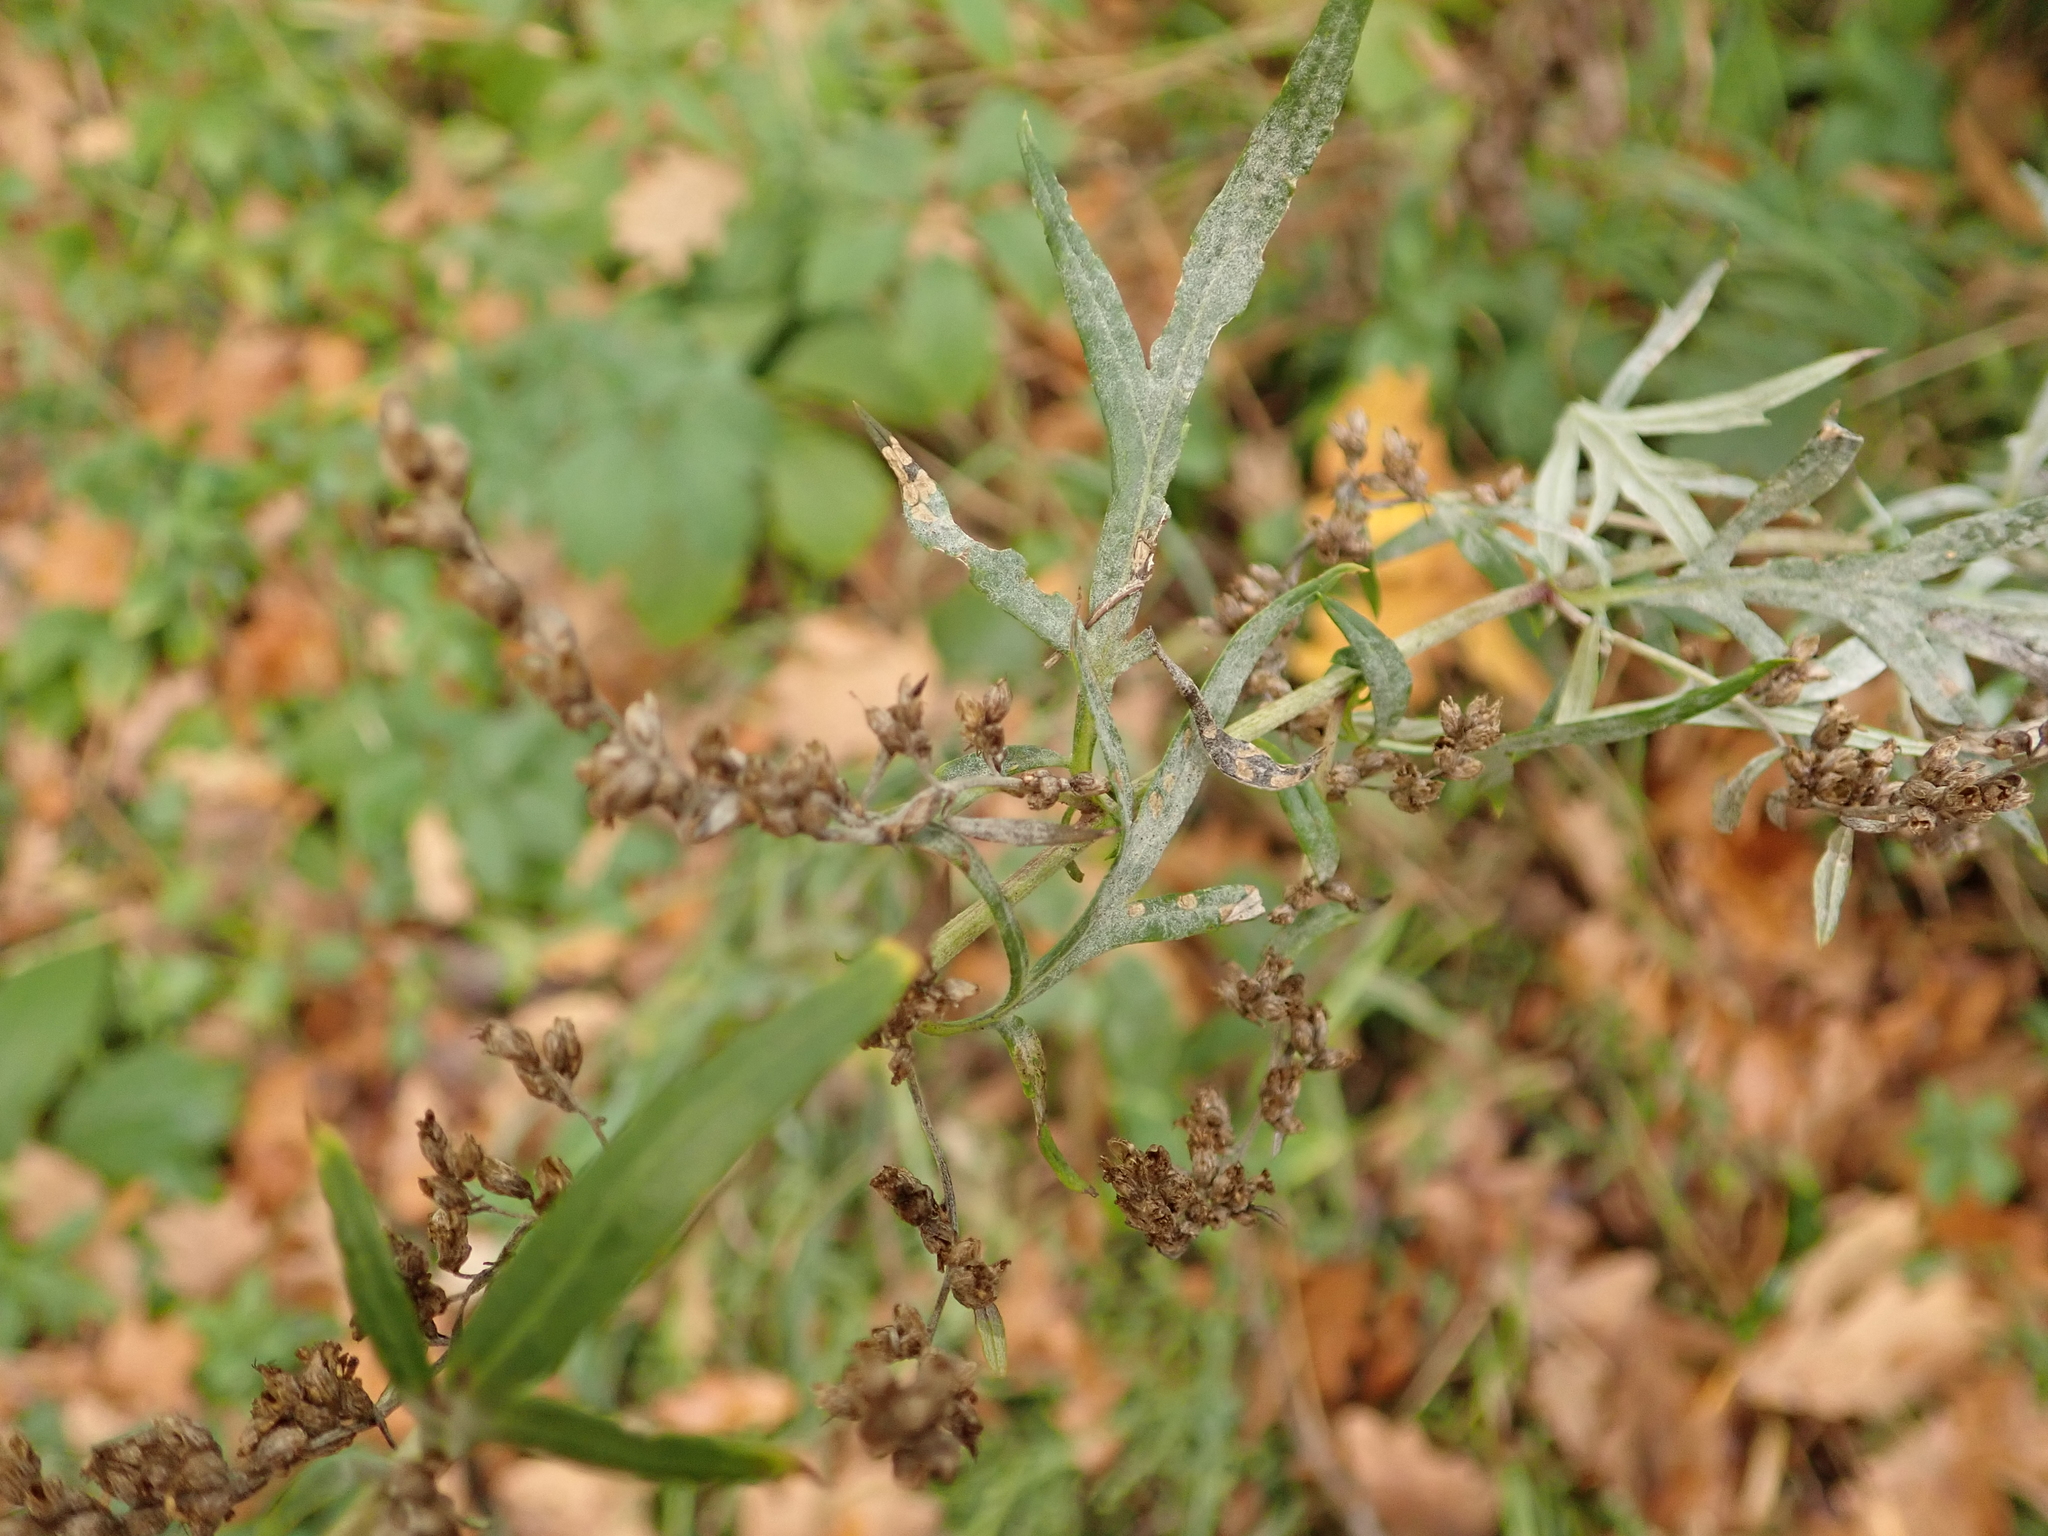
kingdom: Plantae
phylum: Tracheophyta
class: Magnoliopsida
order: Asterales
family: Asteraceae
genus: Artemisia
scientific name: Artemisia vulgaris
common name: Mugwort
